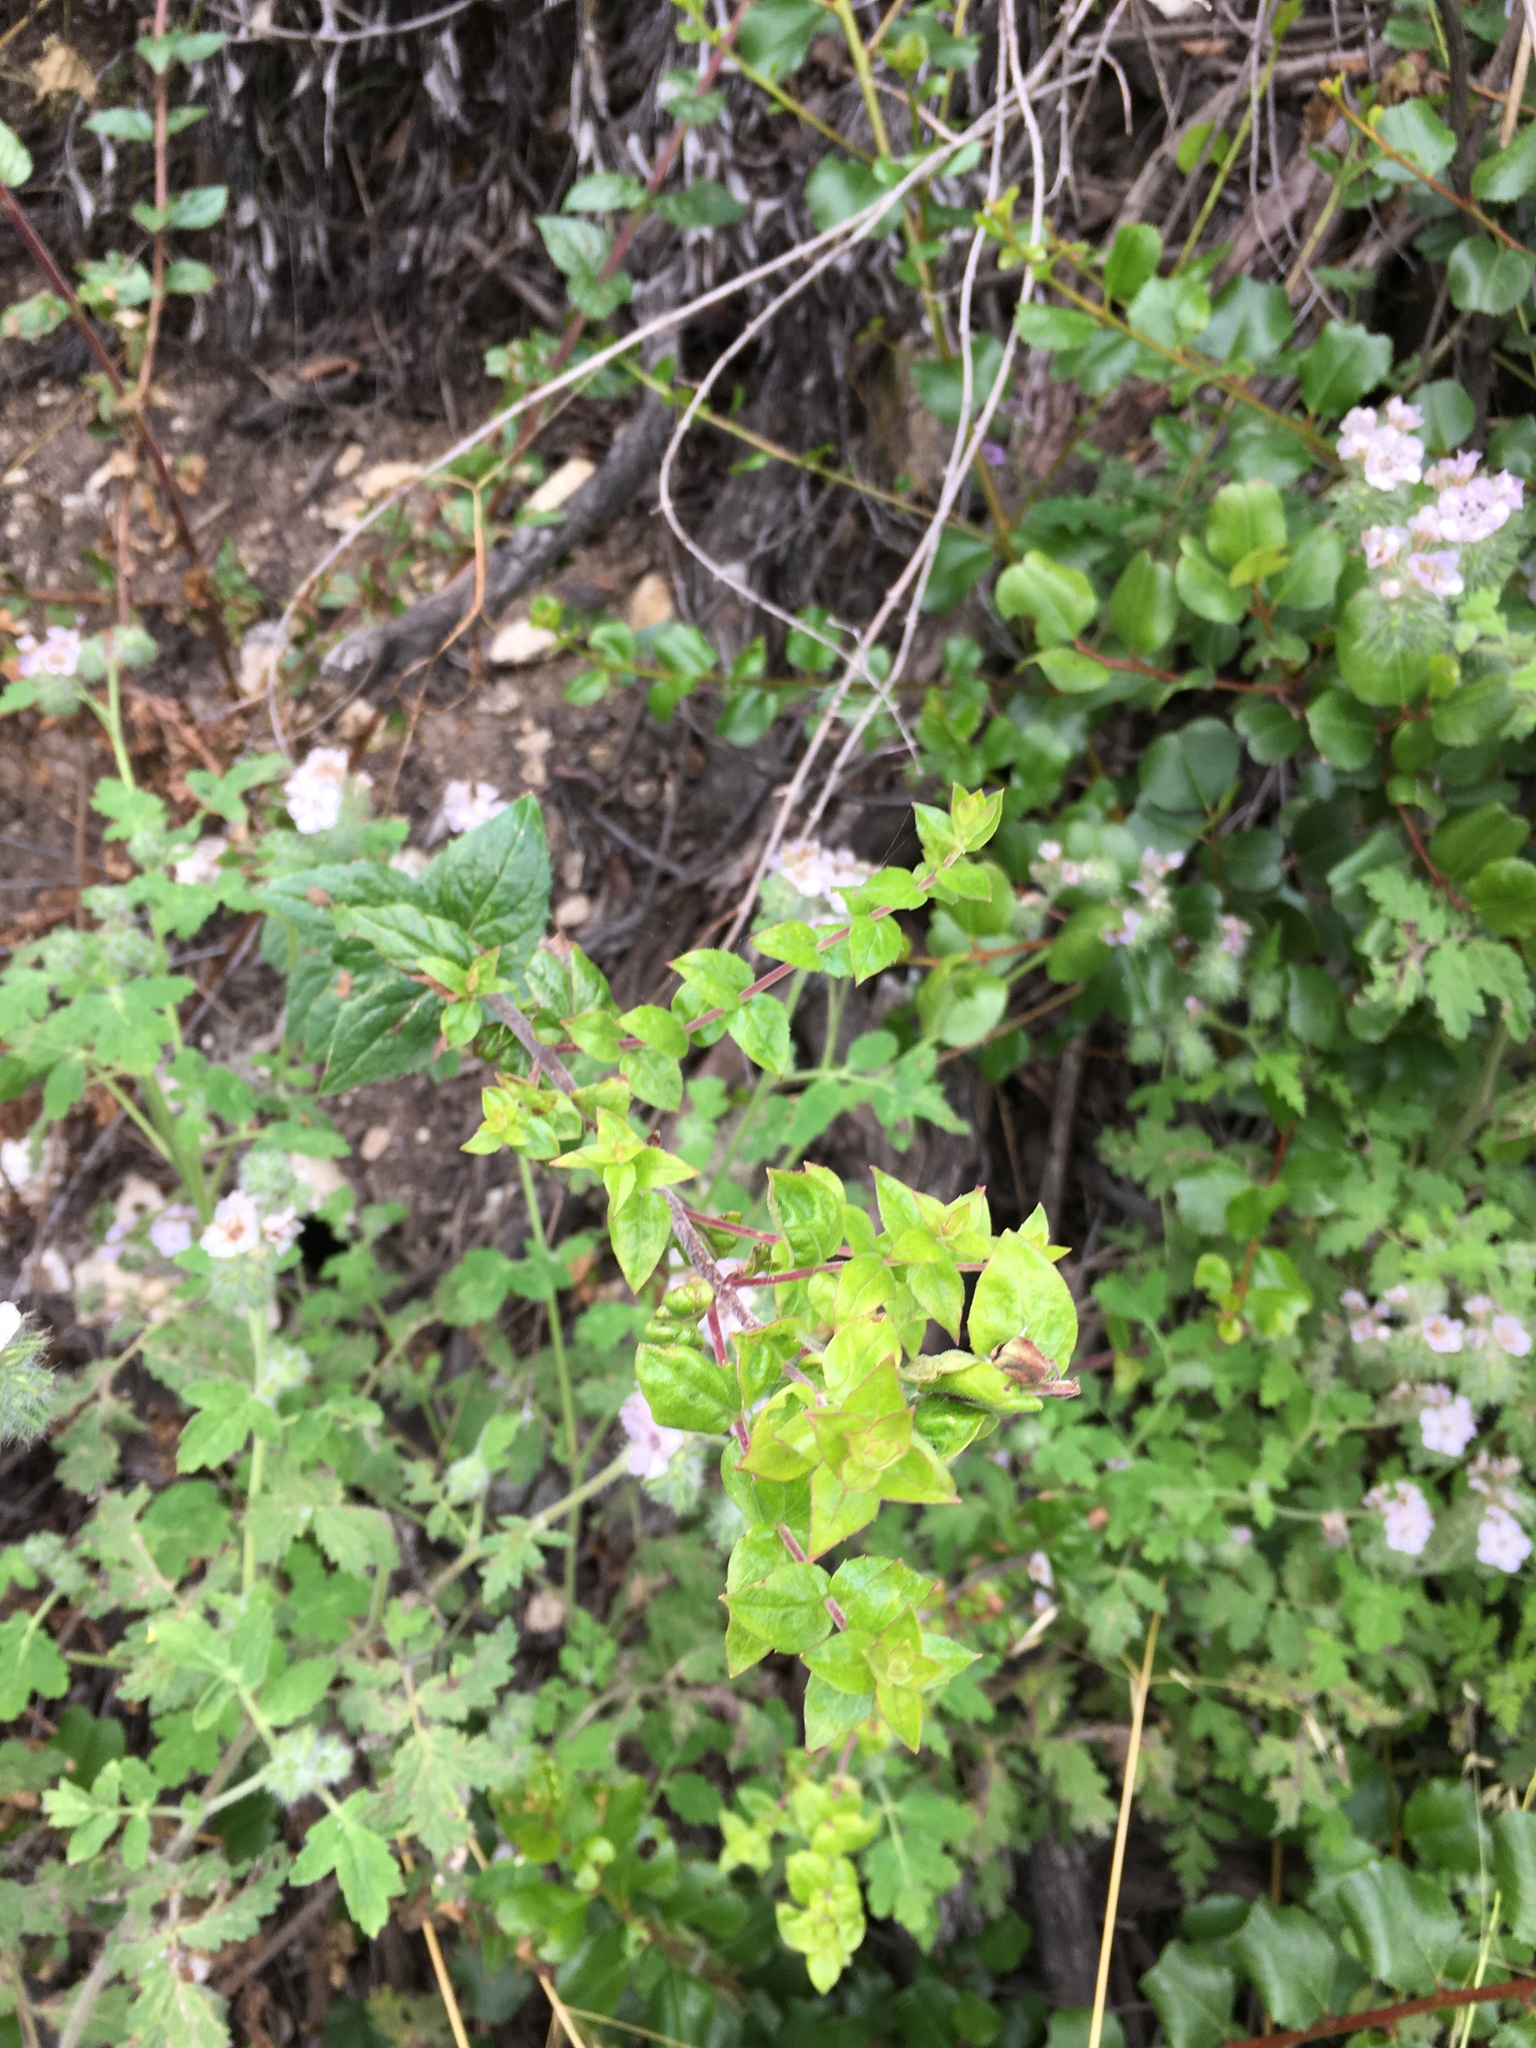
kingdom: Plantae
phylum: Tracheophyta
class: Magnoliopsida
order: Lamiales
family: Plantaginaceae
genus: Keckiella
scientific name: Keckiella cordifolia
